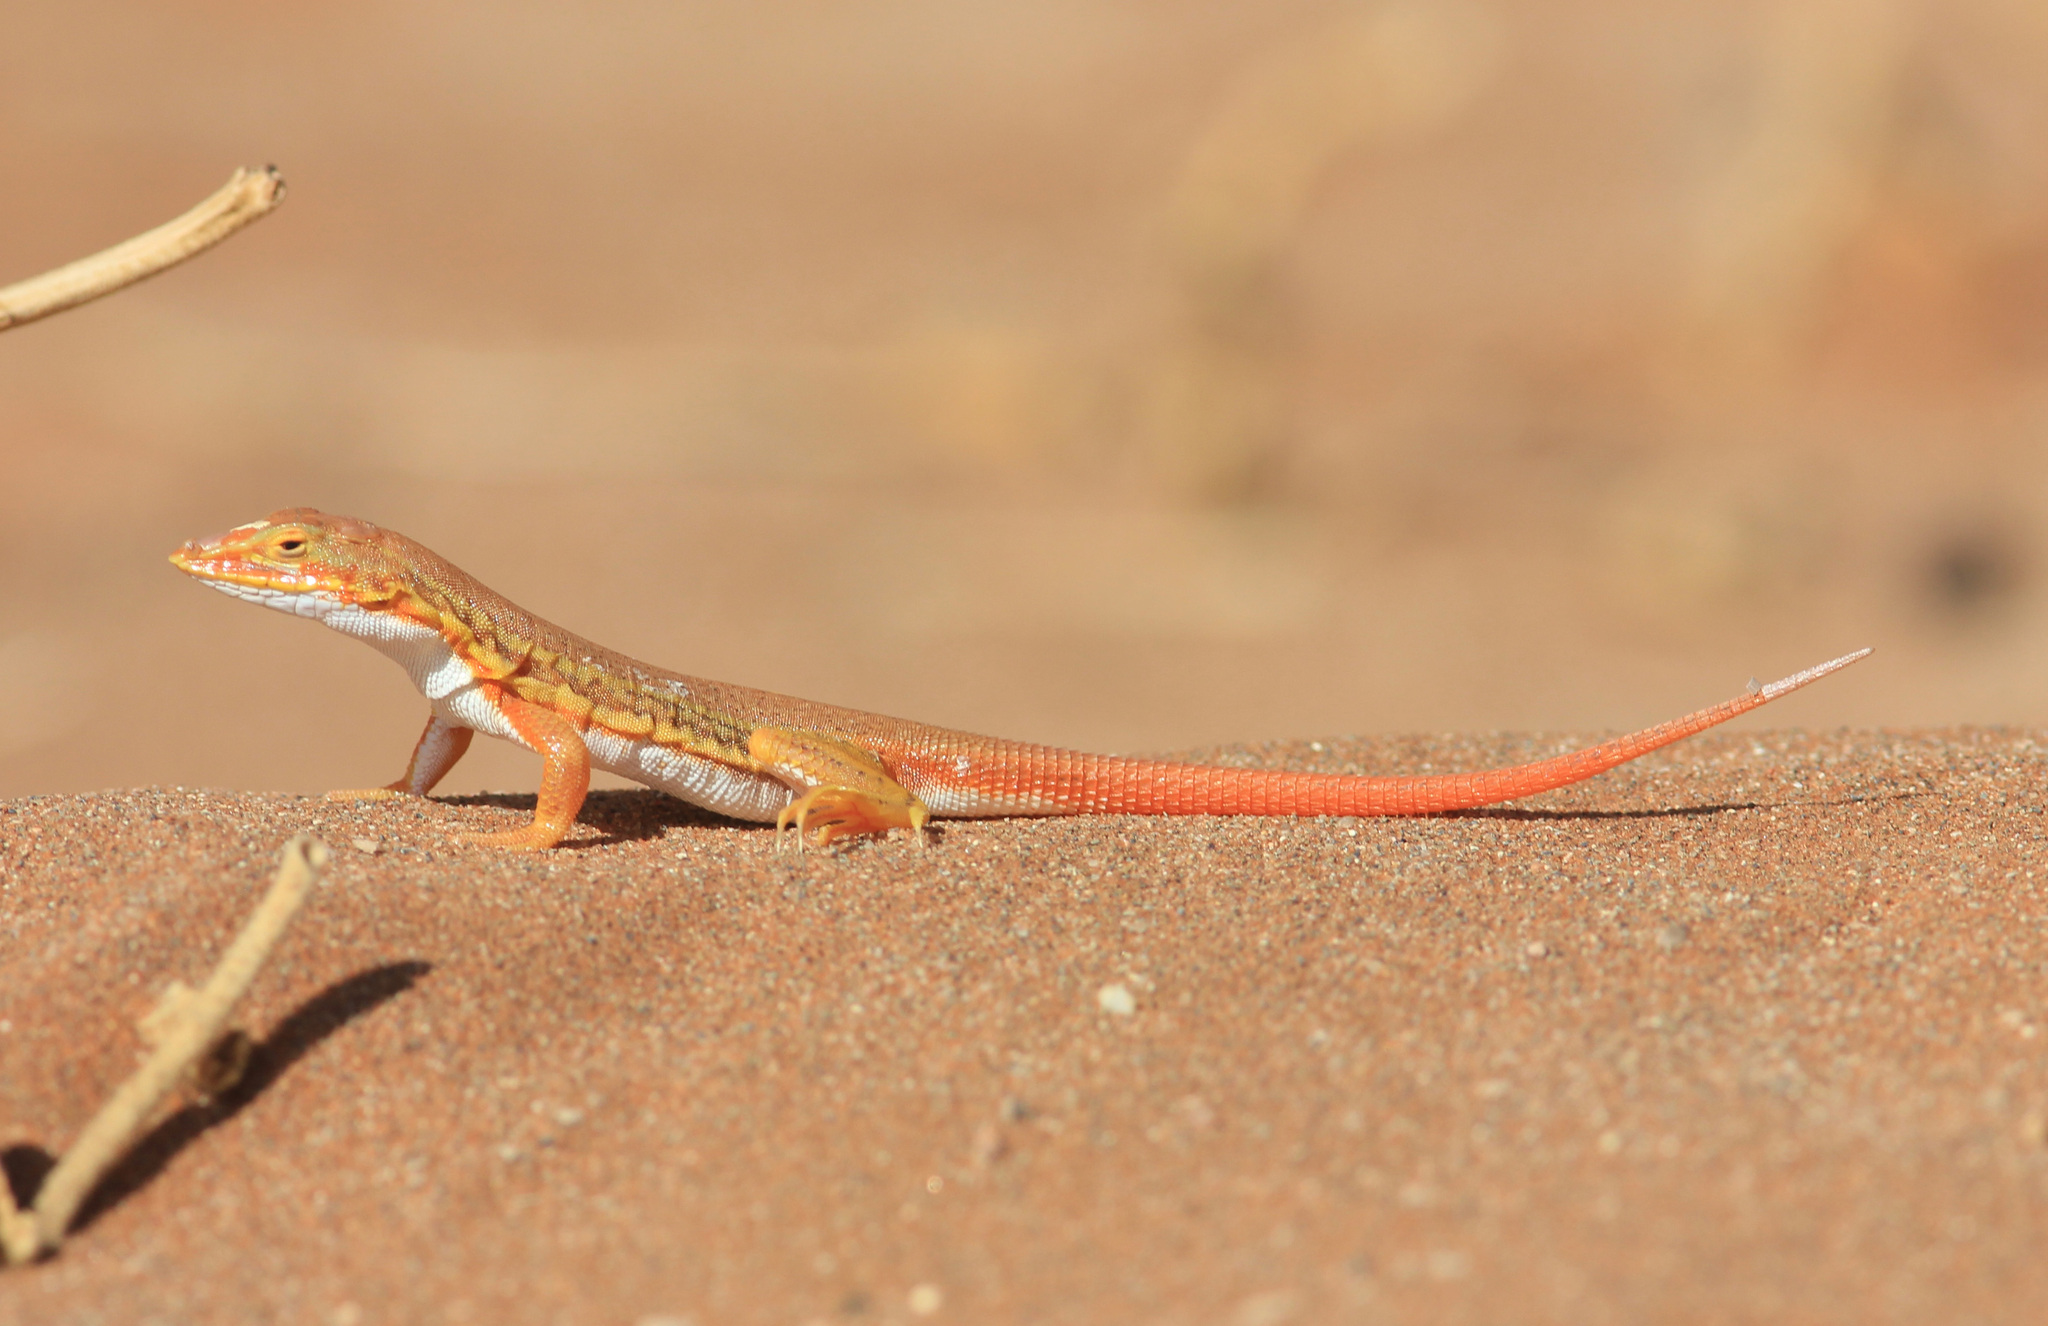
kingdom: Animalia
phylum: Chordata
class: Squamata
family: Lacertidae
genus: Meroles
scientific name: Meroles cuneirostris
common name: Wedge-snouted desert lizard
